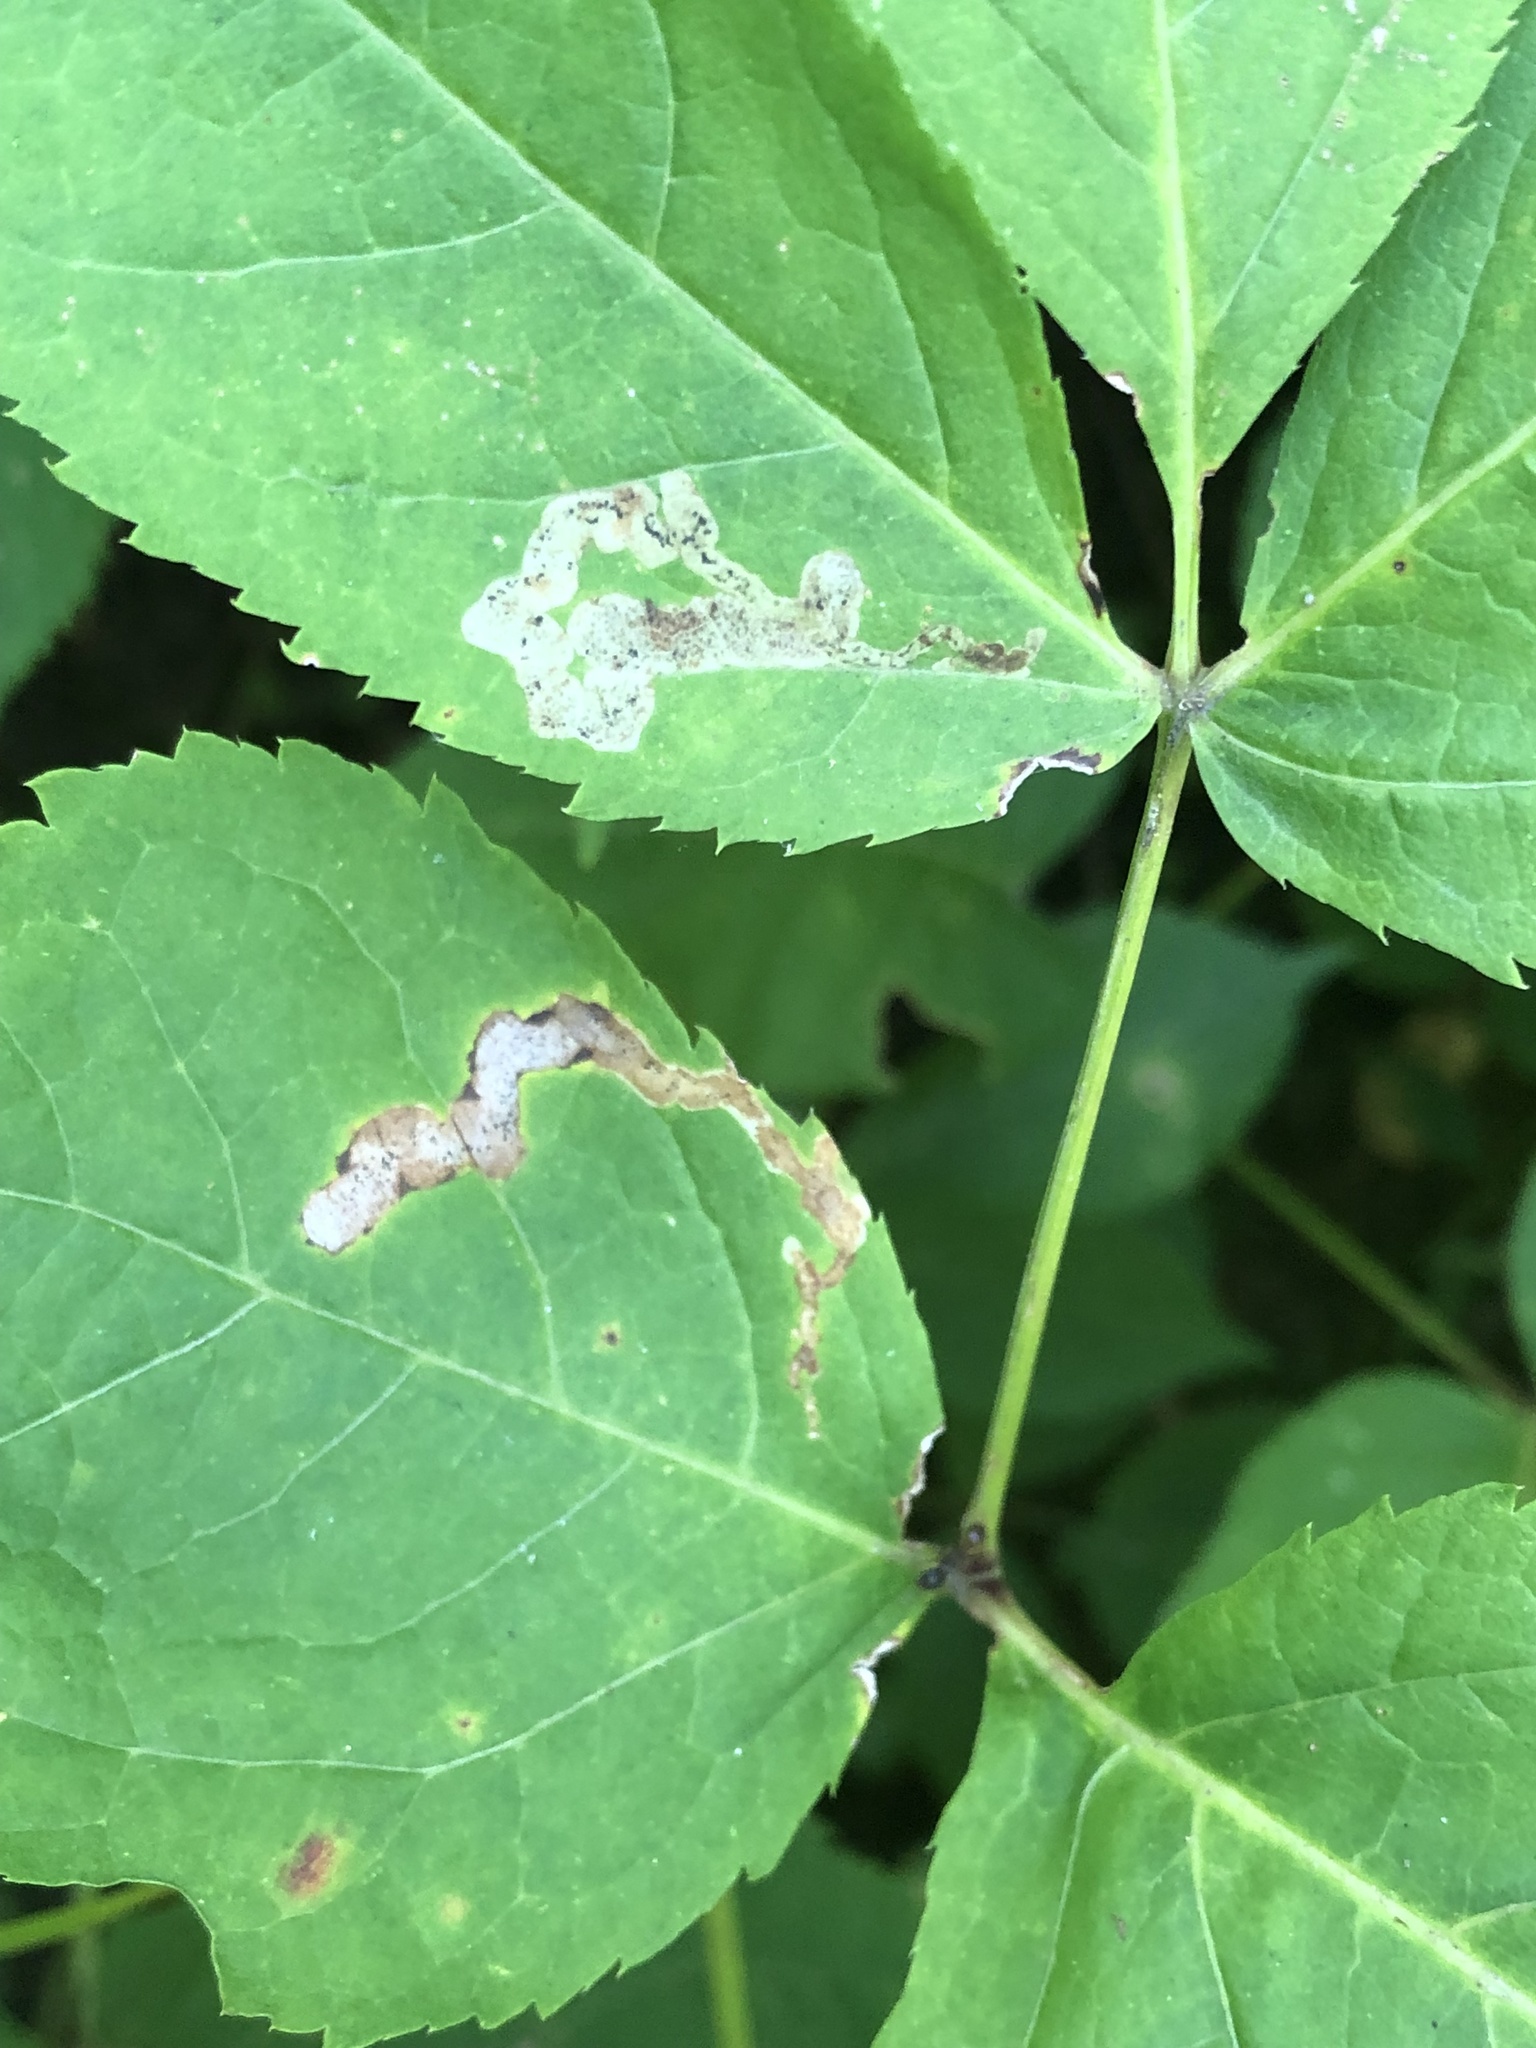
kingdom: Animalia
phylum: Arthropoda
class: Insecta
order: Diptera
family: Agromyzidae
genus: Phytomyza
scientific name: Phytomyza aralivora
